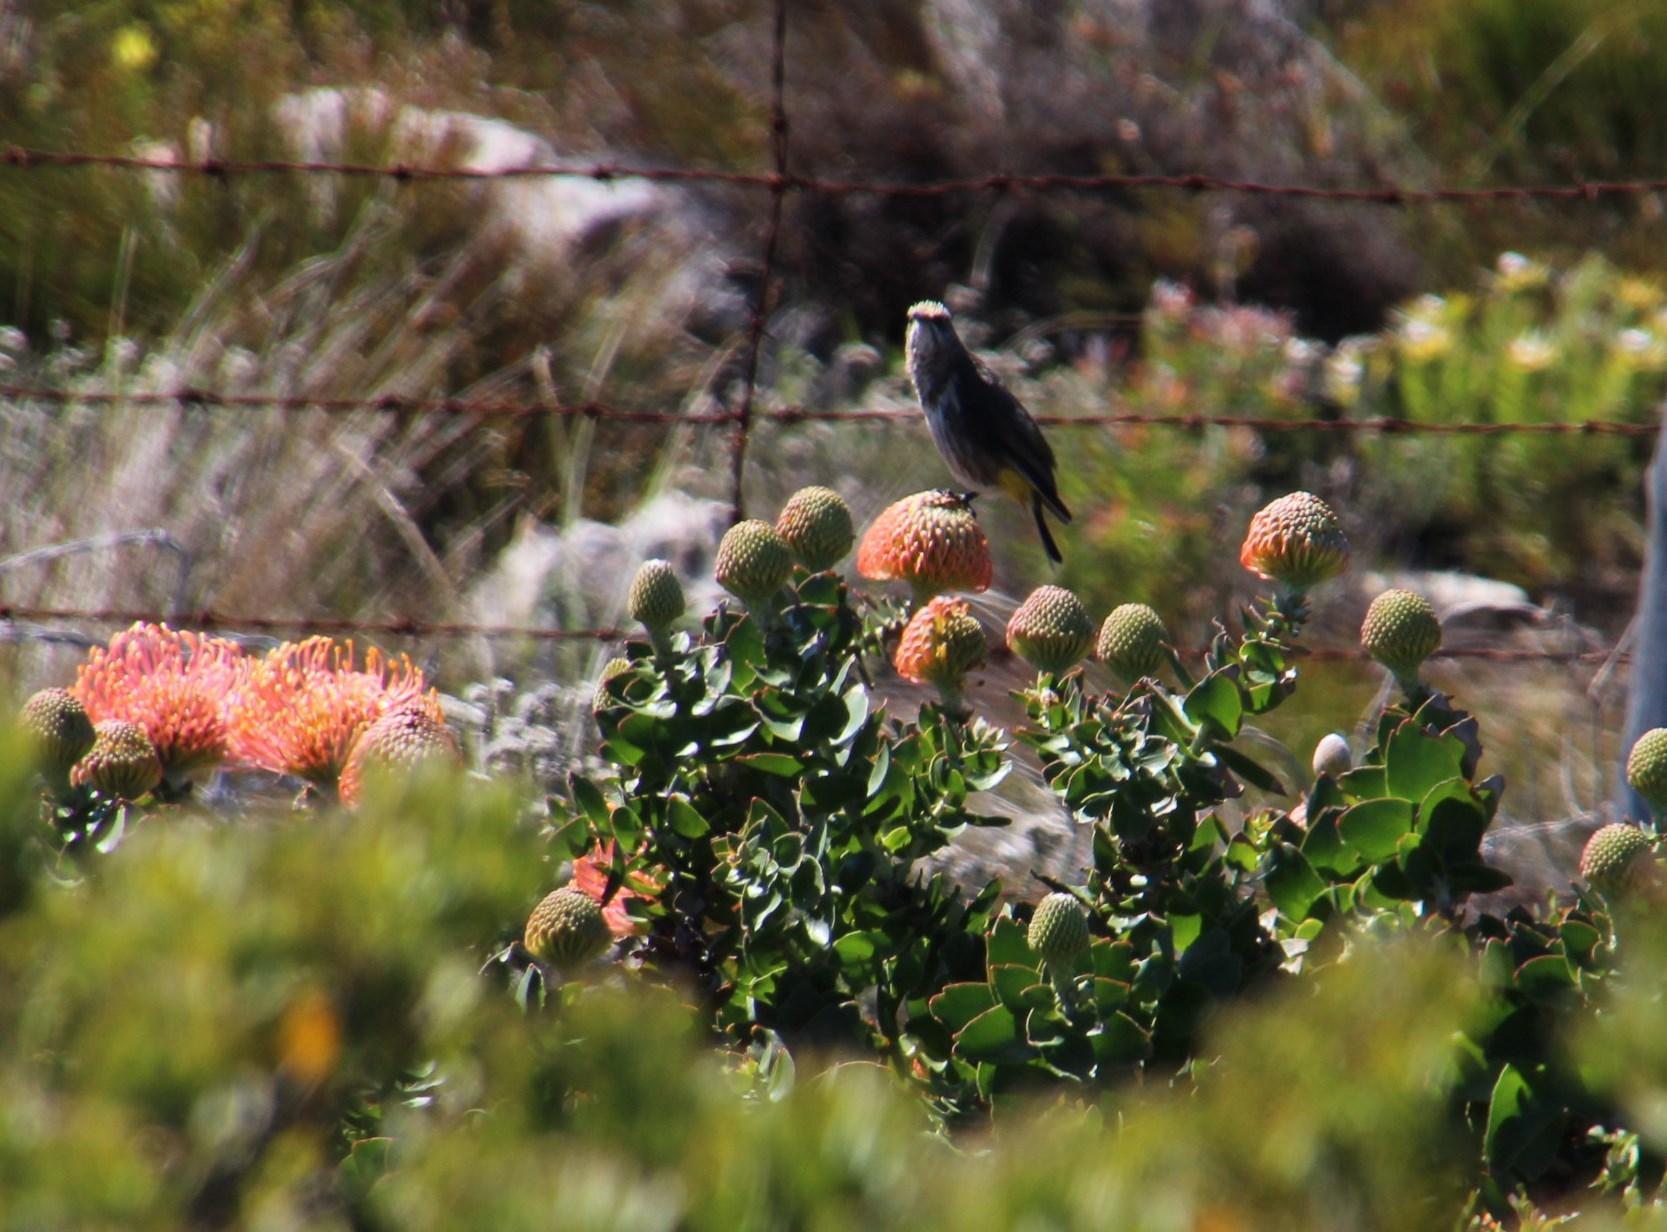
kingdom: Animalia
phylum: Chordata
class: Aves
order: Passeriformes
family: Promeropidae
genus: Promerops
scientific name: Promerops cafer
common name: Cape sugarbird
